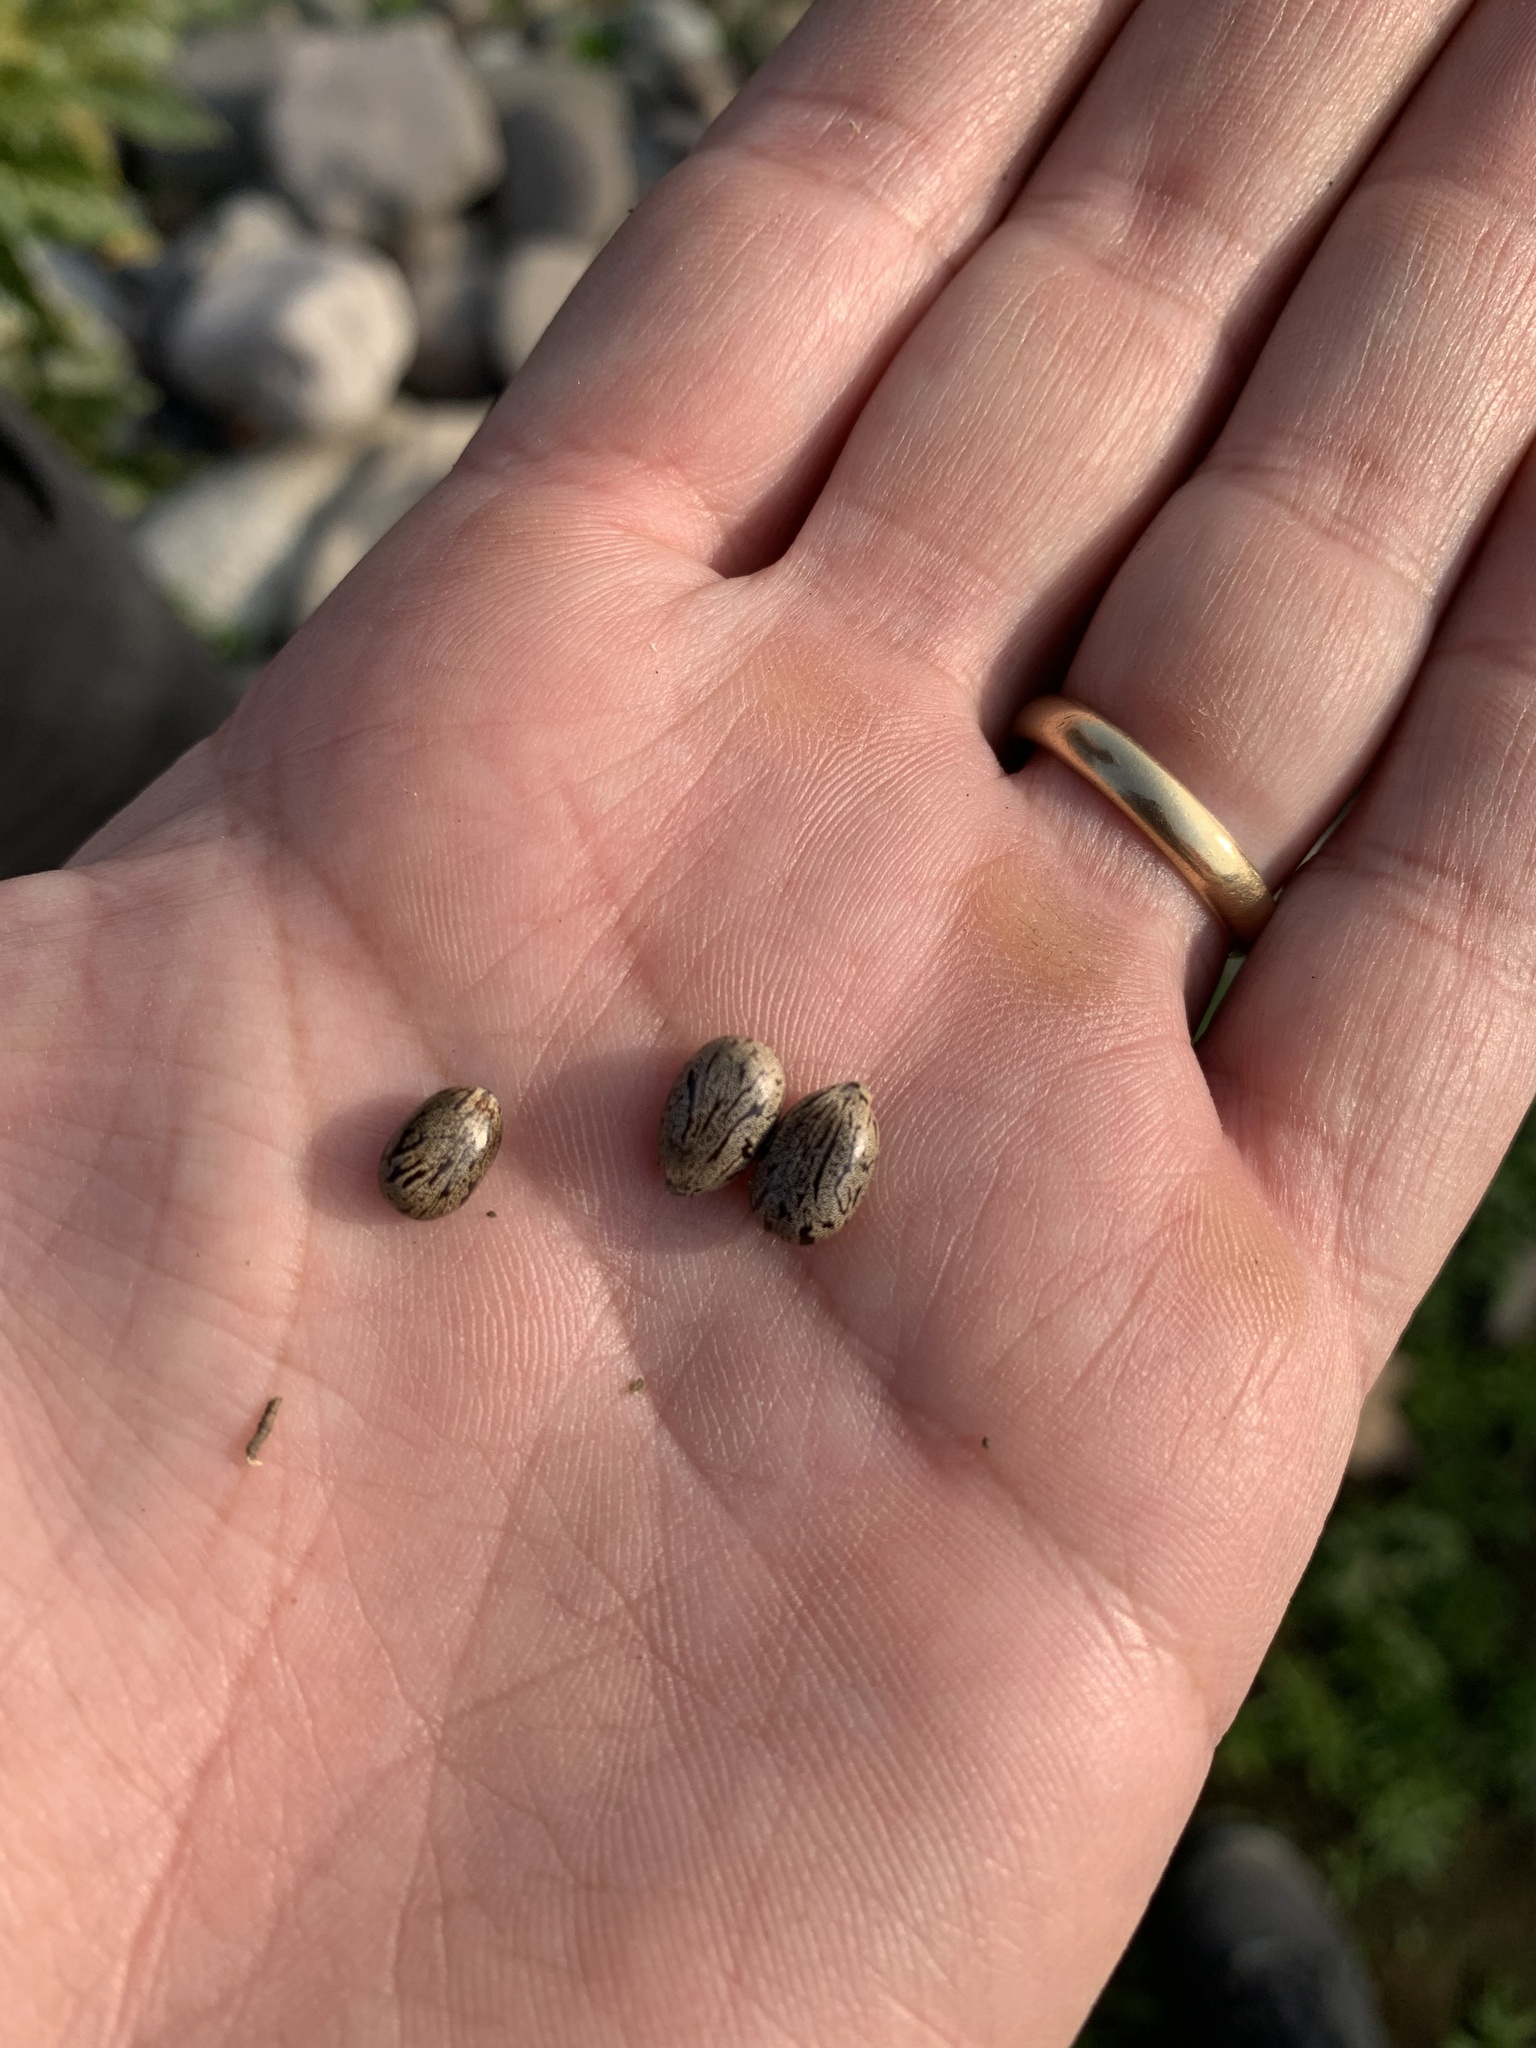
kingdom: Plantae
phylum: Tracheophyta
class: Magnoliopsida
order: Malpighiales
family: Euphorbiaceae
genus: Ricinus
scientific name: Ricinus communis
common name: Castor-oil-plant
